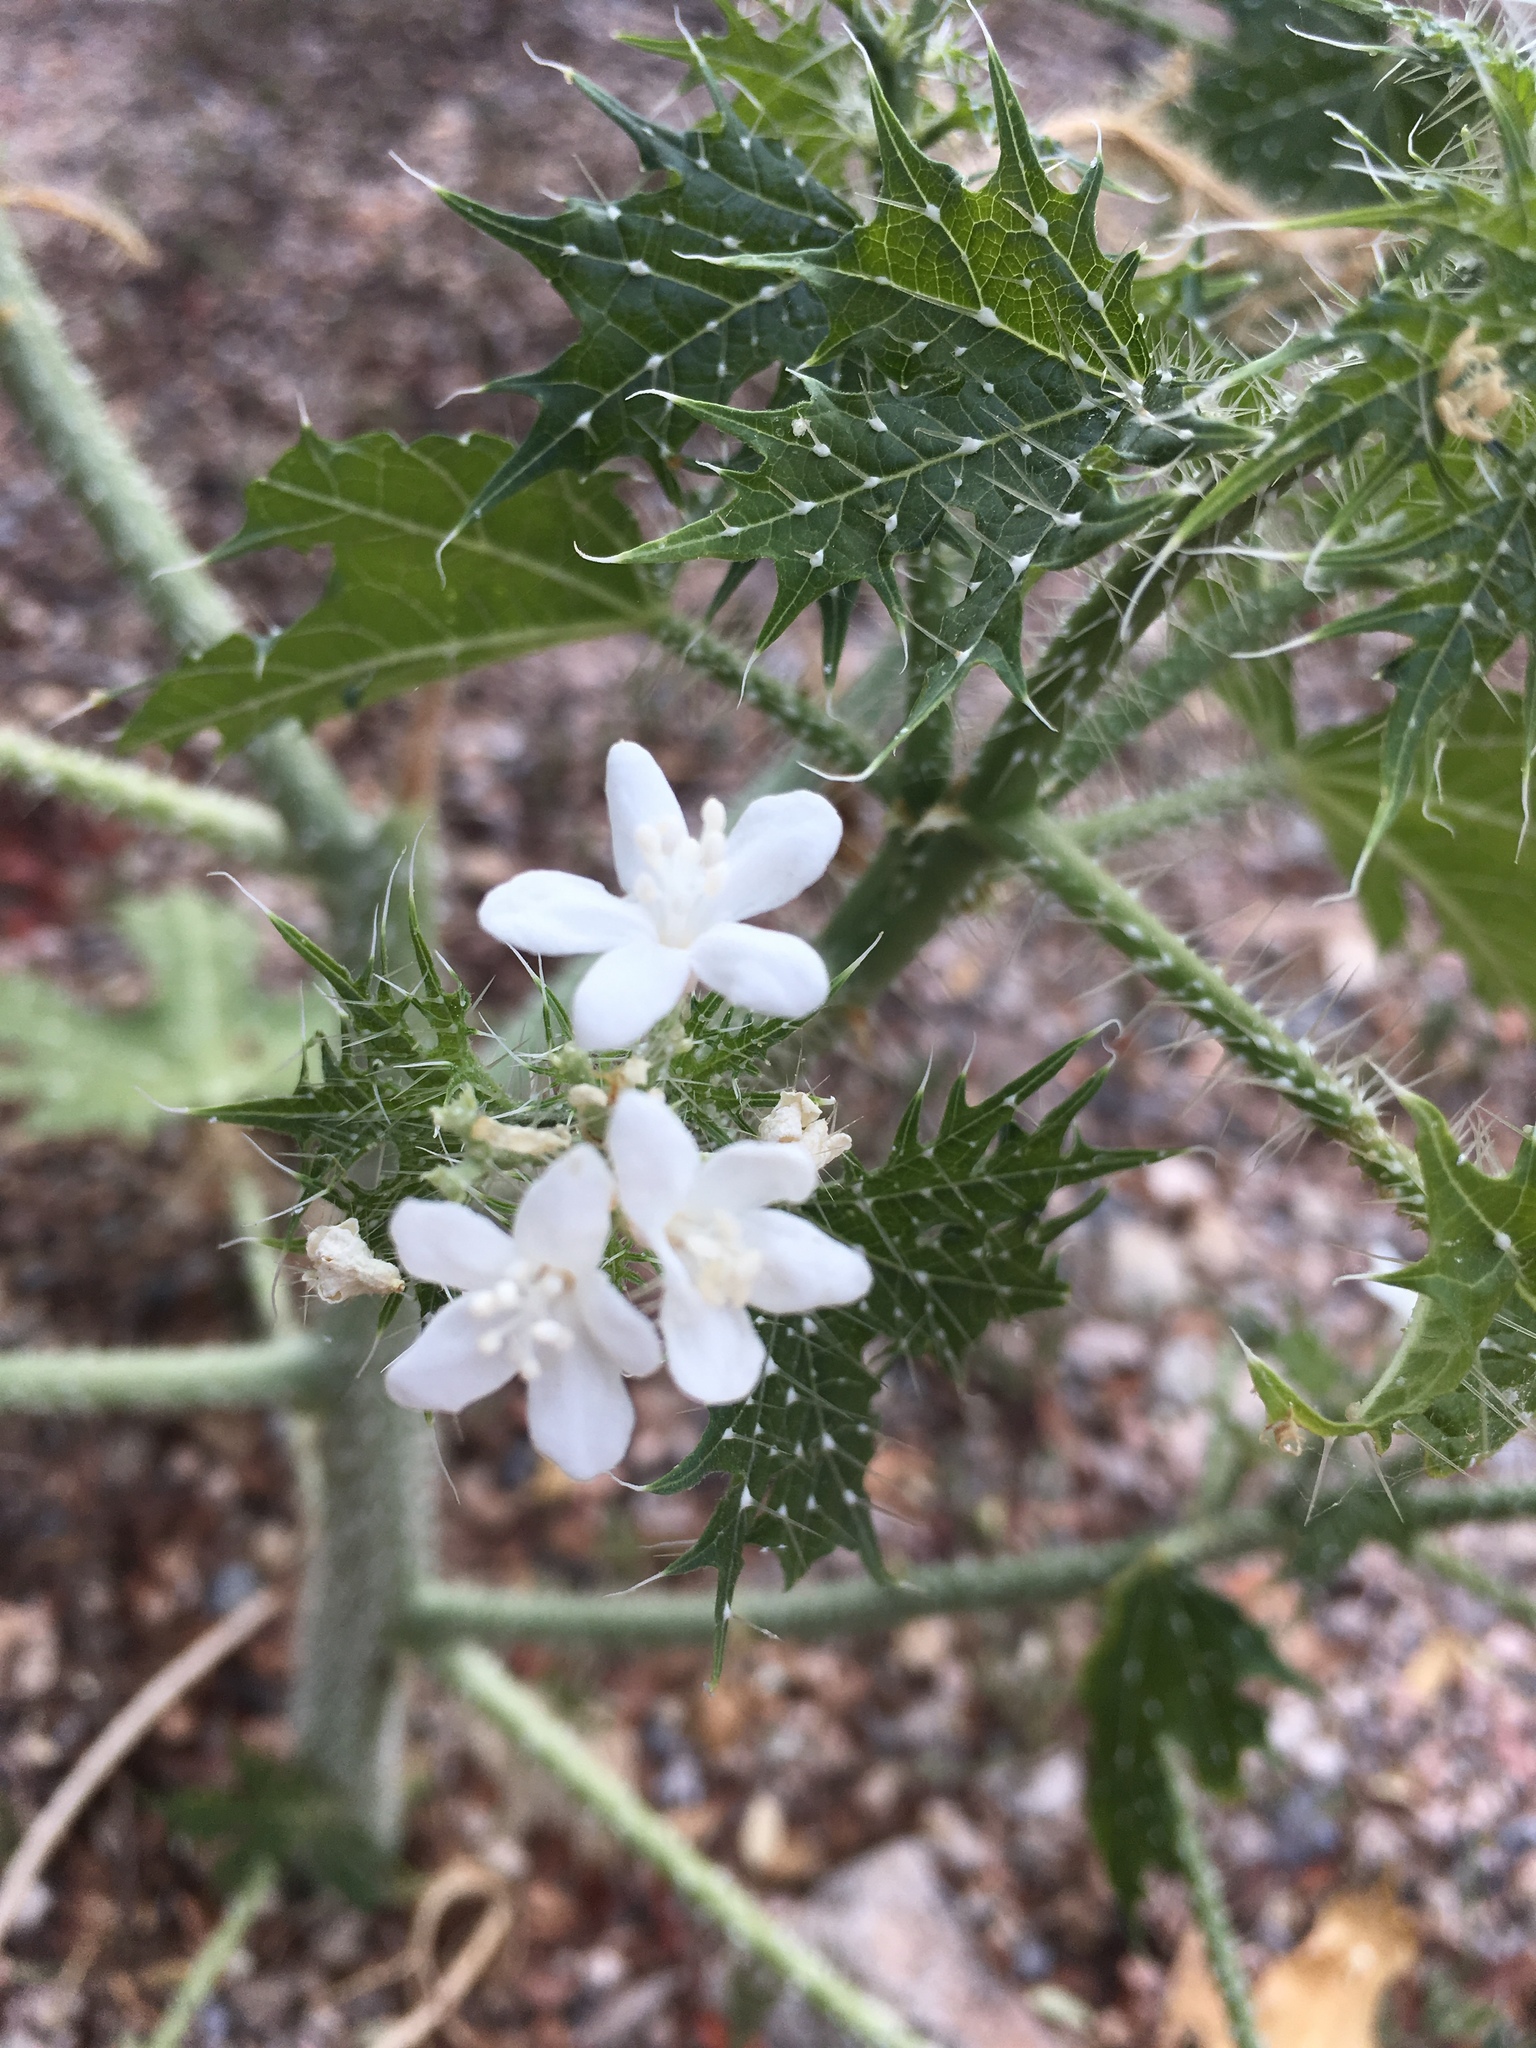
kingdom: Plantae
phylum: Tracheophyta
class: Magnoliopsida
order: Malpighiales
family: Euphorbiaceae
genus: Cnidoscolus
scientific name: Cnidoscolus maculatus
